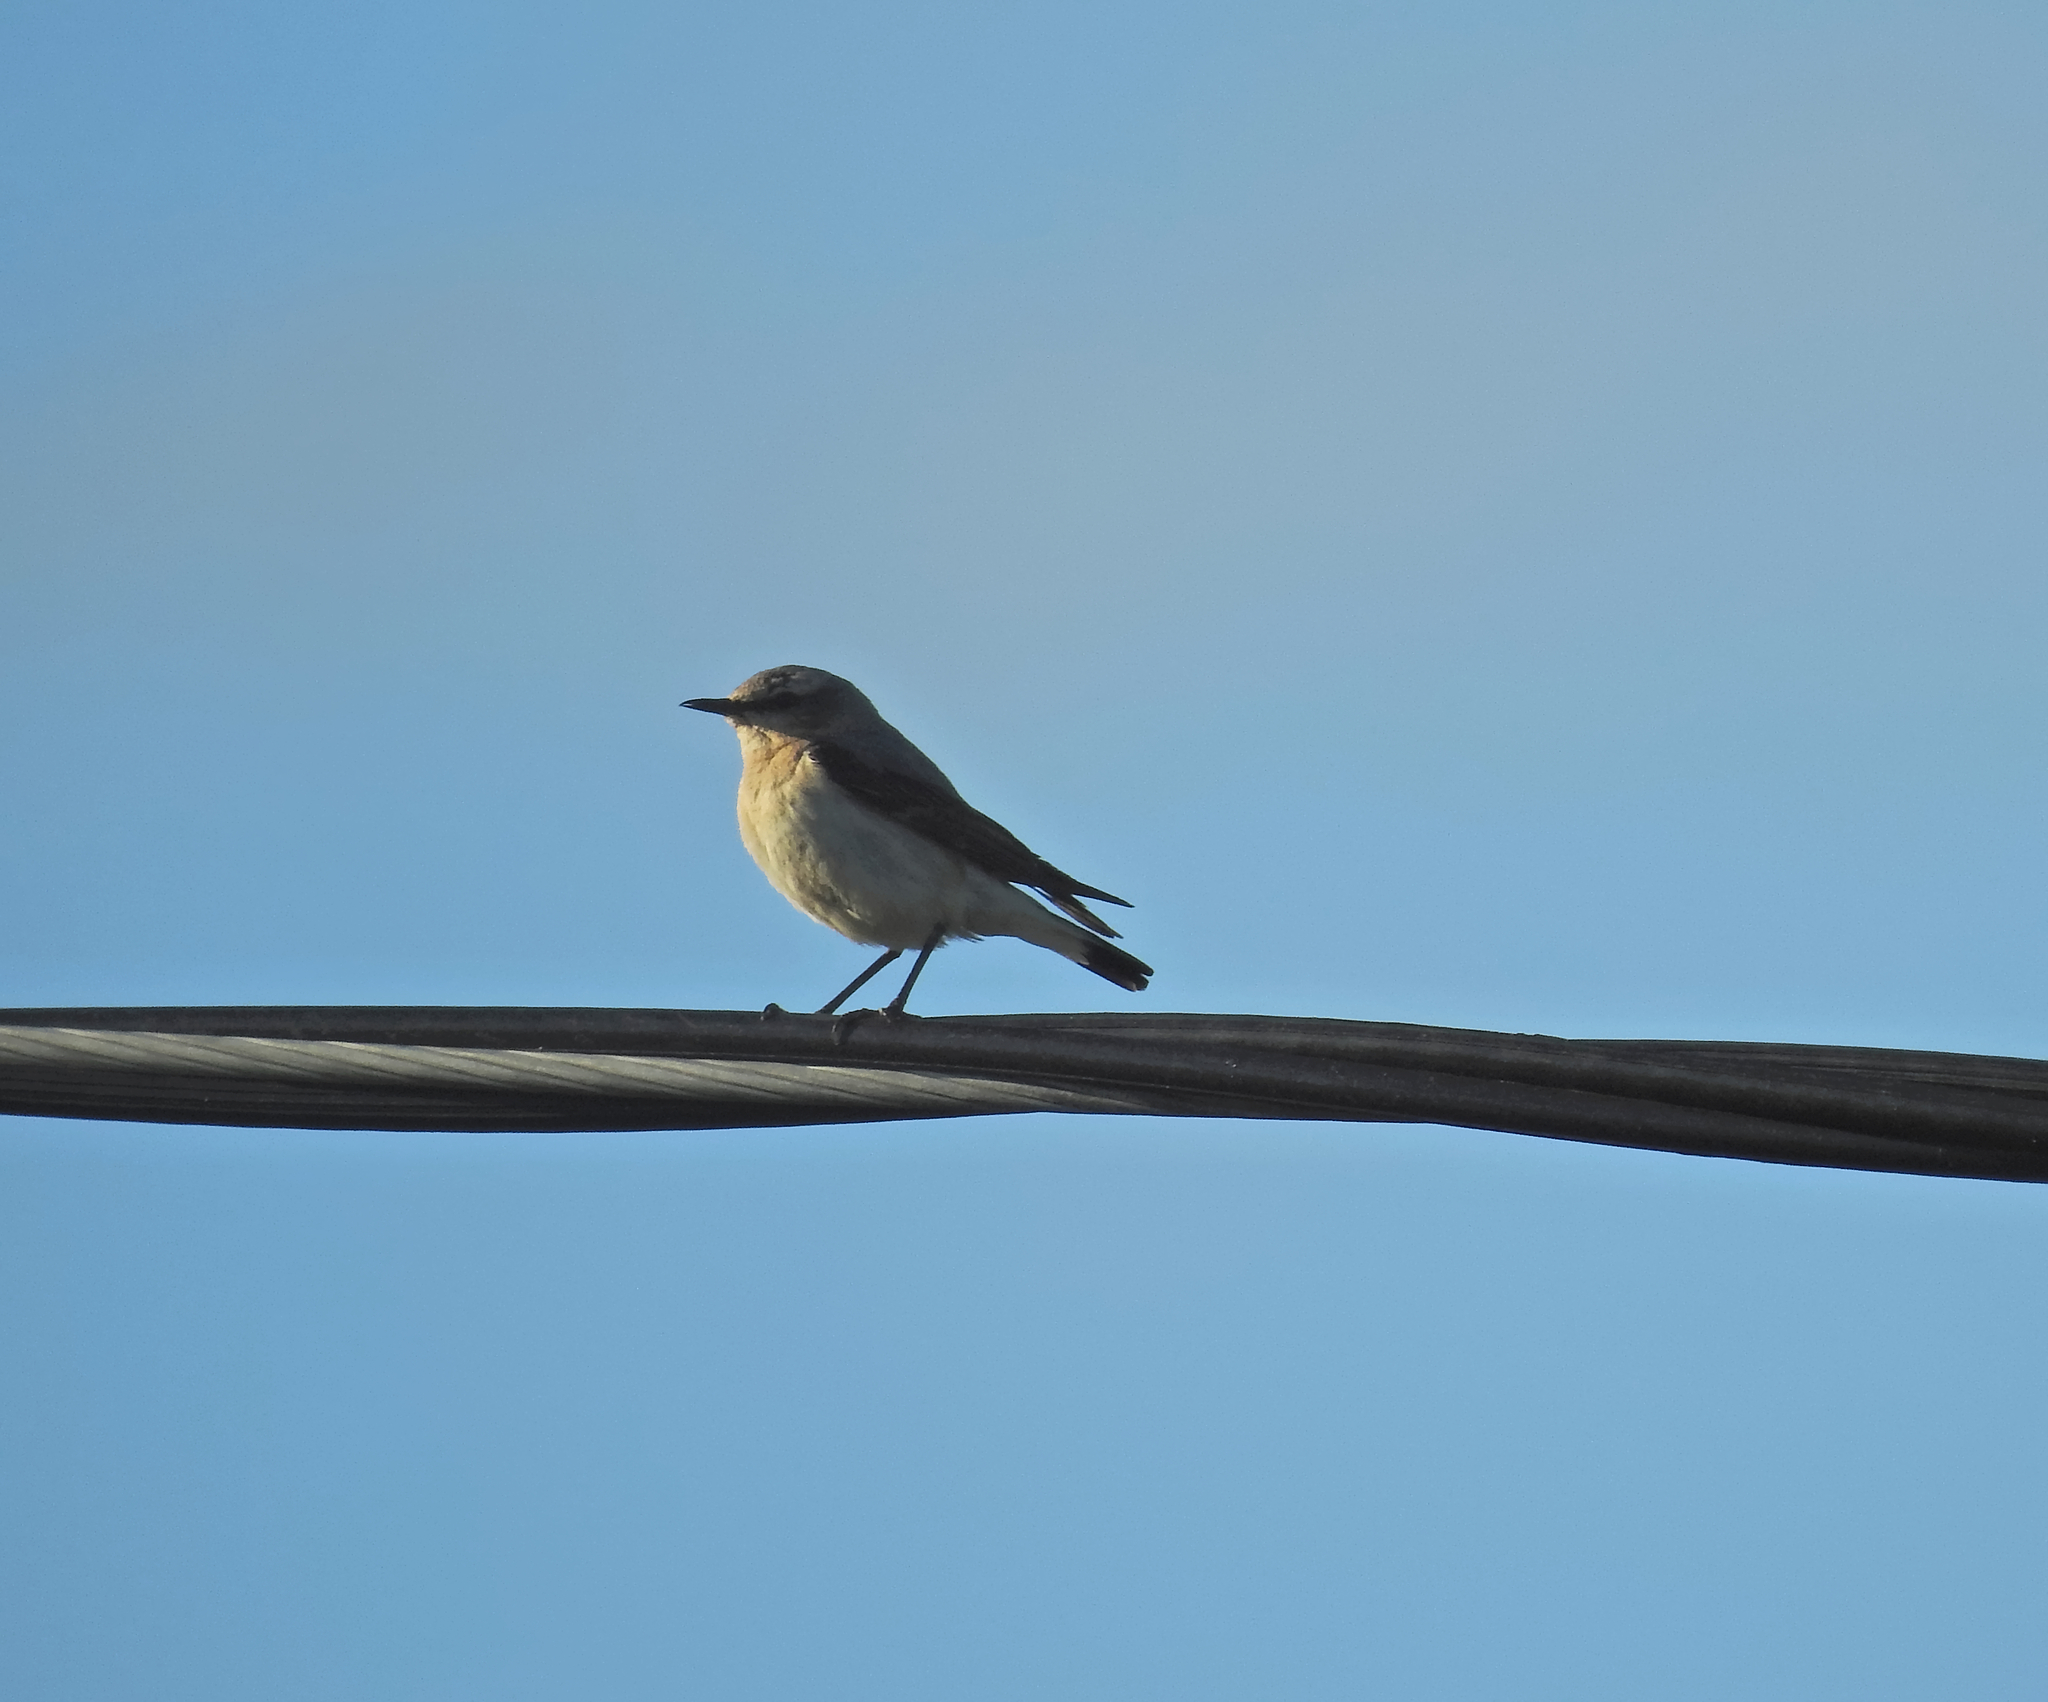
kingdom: Animalia
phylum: Chordata
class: Aves
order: Passeriformes
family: Muscicapidae
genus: Oenanthe
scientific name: Oenanthe oenanthe
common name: Northern wheatear
